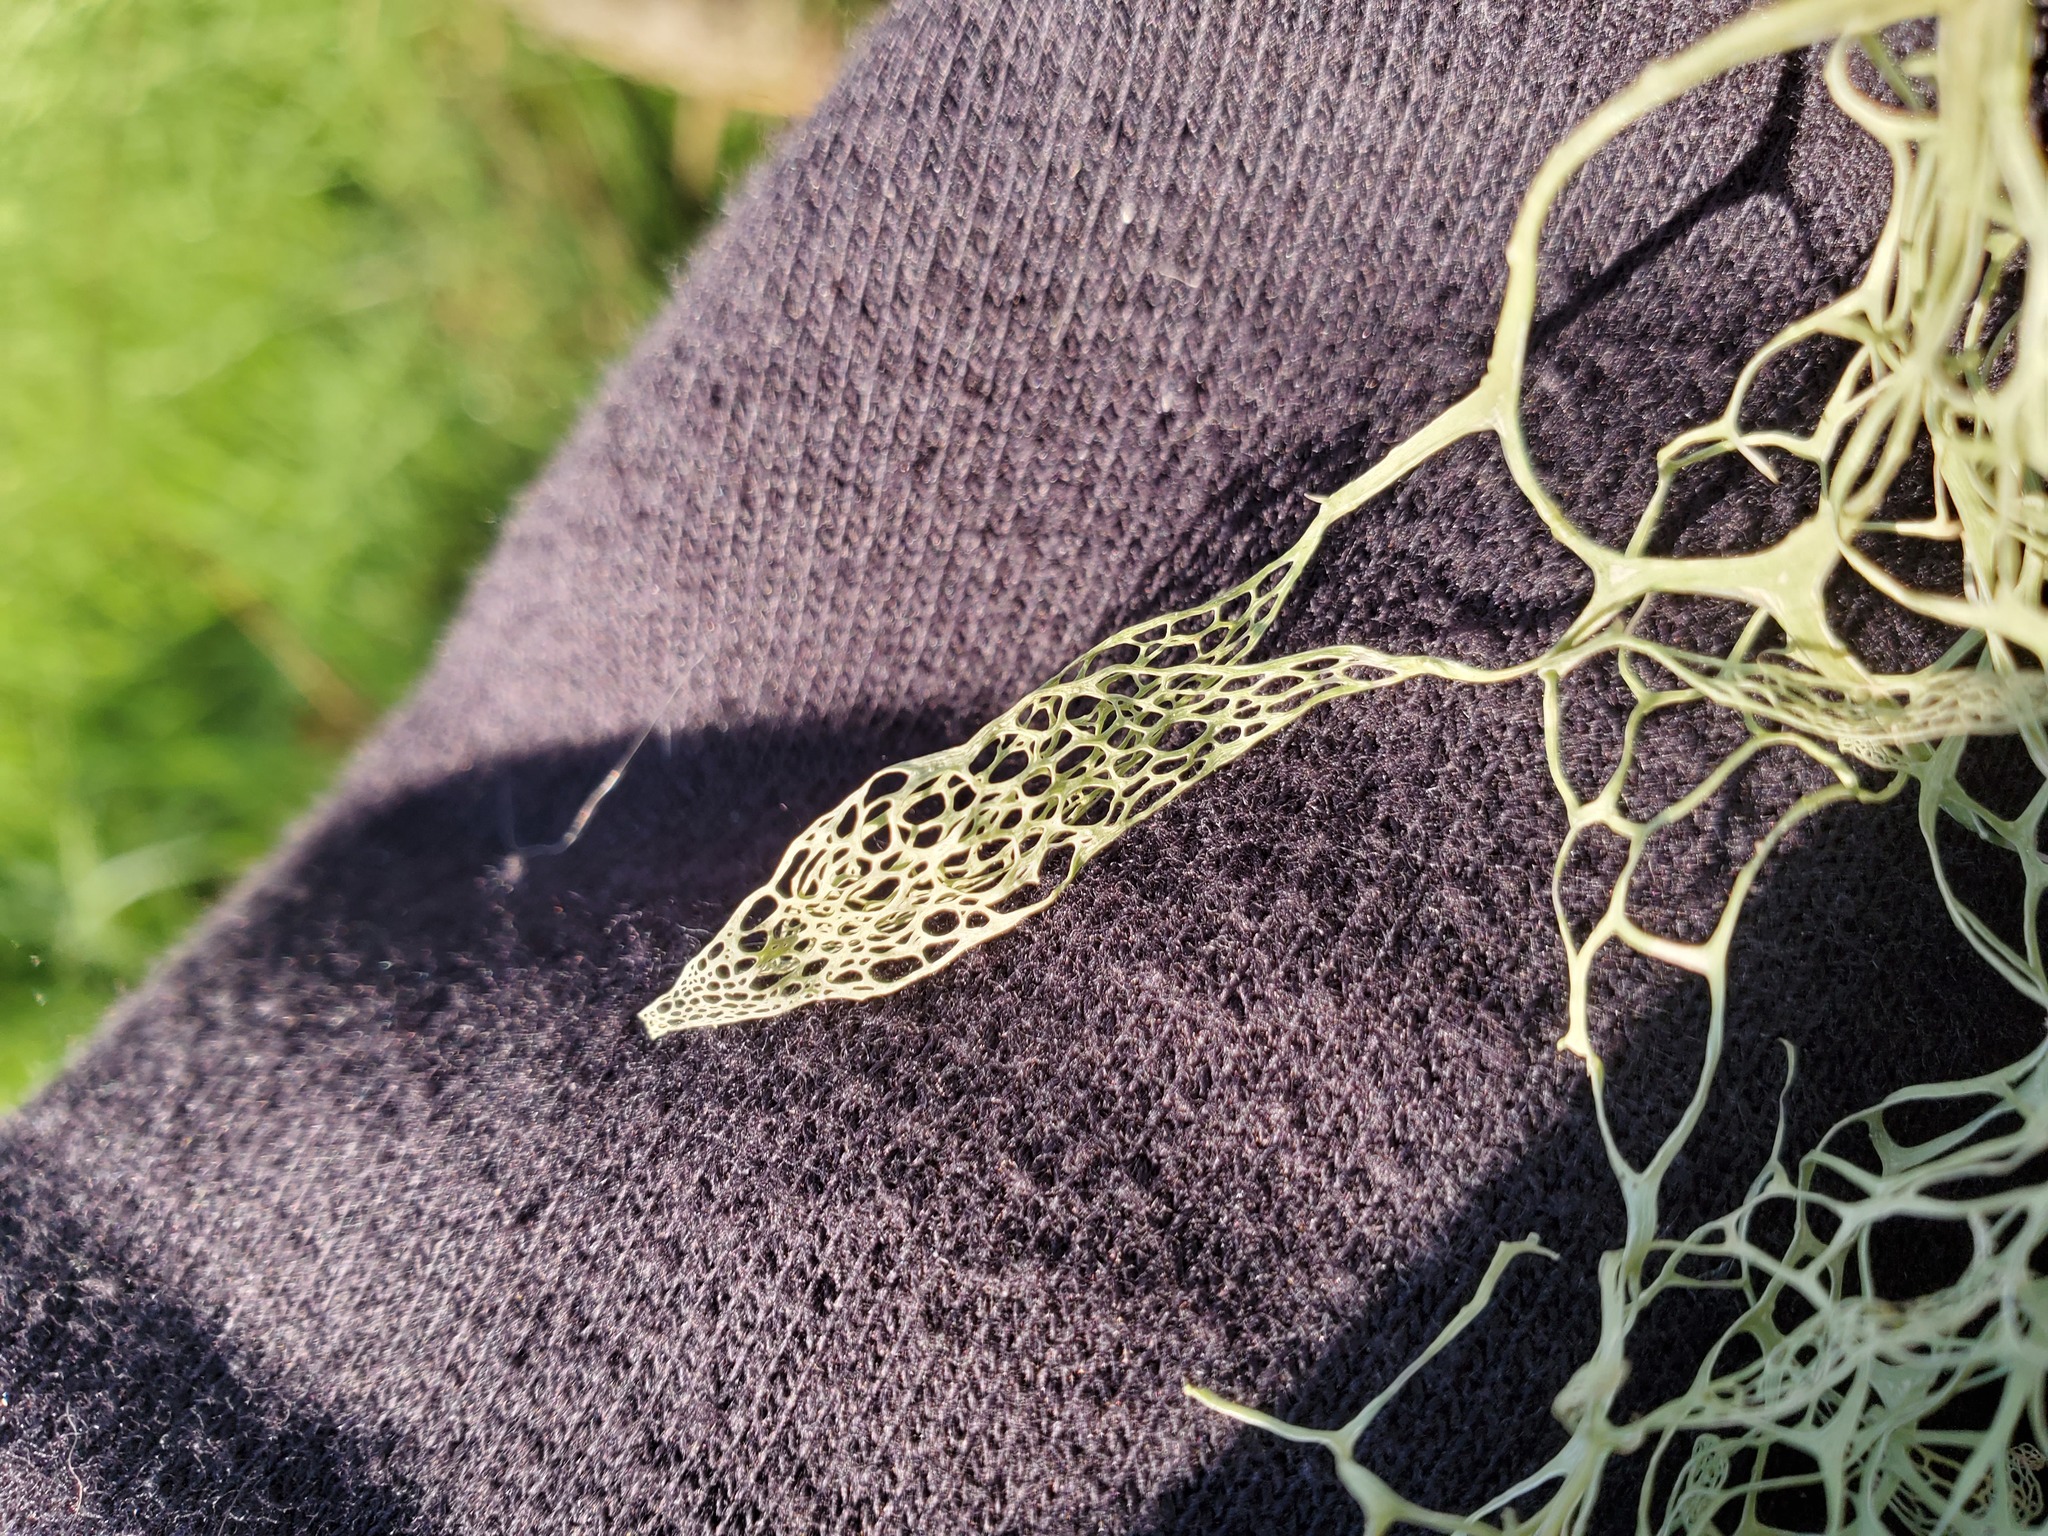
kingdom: Fungi
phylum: Ascomycota
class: Lecanoromycetes
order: Lecanorales
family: Ramalinaceae
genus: Ramalina
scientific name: Ramalina menziesii
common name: Lace lichen
